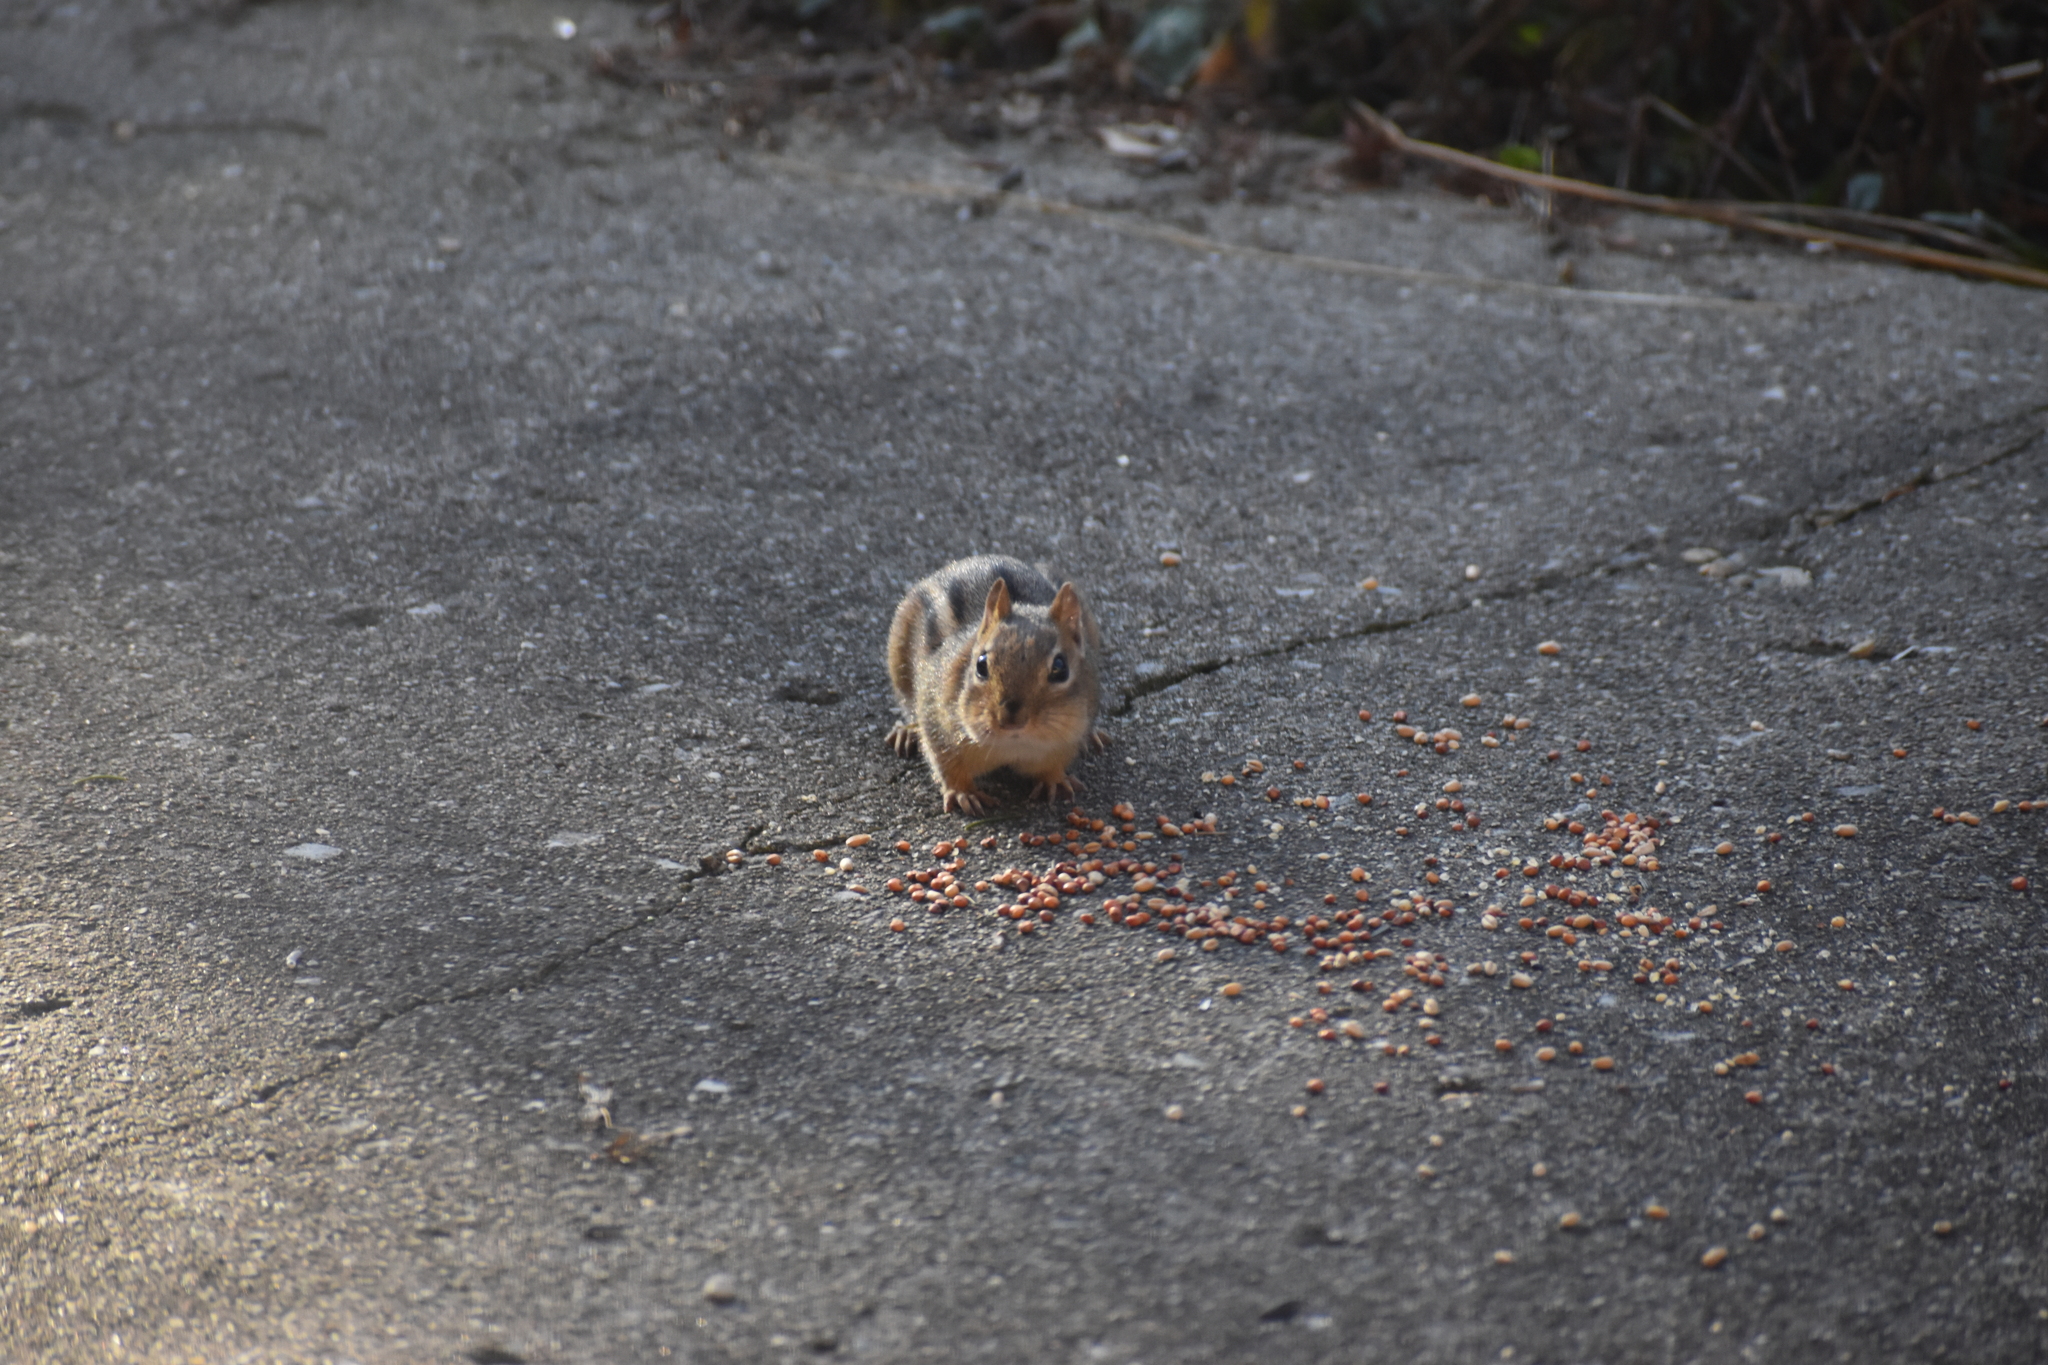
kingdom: Animalia
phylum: Chordata
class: Mammalia
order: Rodentia
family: Sciuridae
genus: Tamias
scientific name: Tamias striatus
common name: Eastern chipmunk
